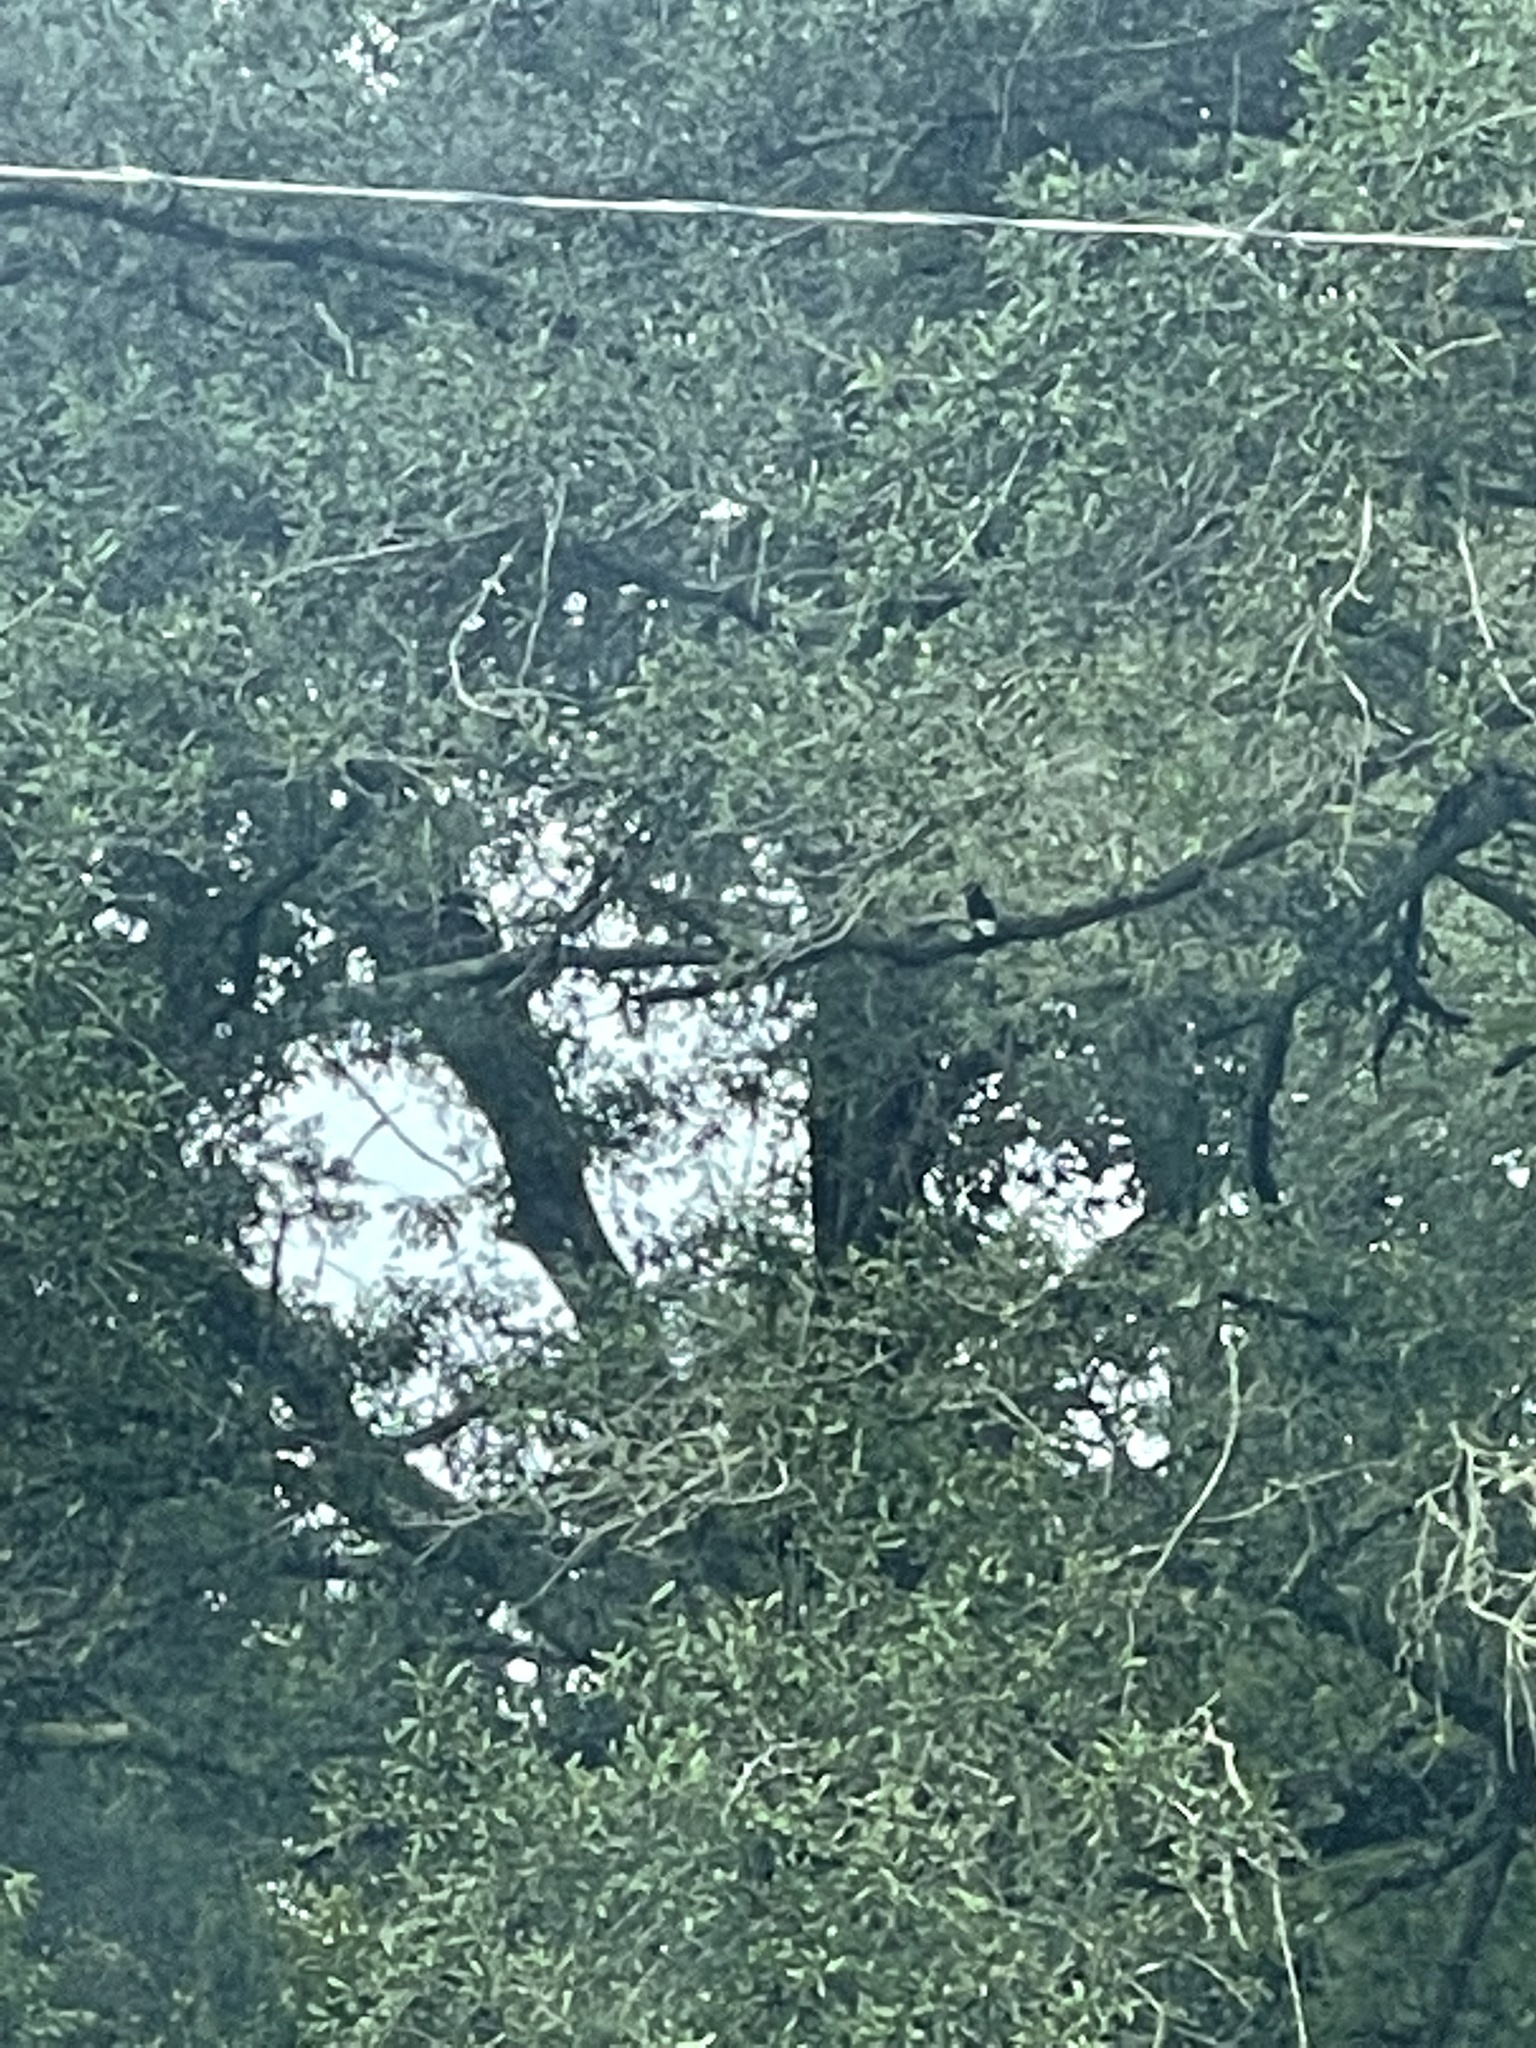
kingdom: Animalia
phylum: Chordata
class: Aves
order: Piciformes
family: Picidae
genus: Melanerpes
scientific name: Melanerpes erythrocephalus
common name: Red-headed woodpecker
